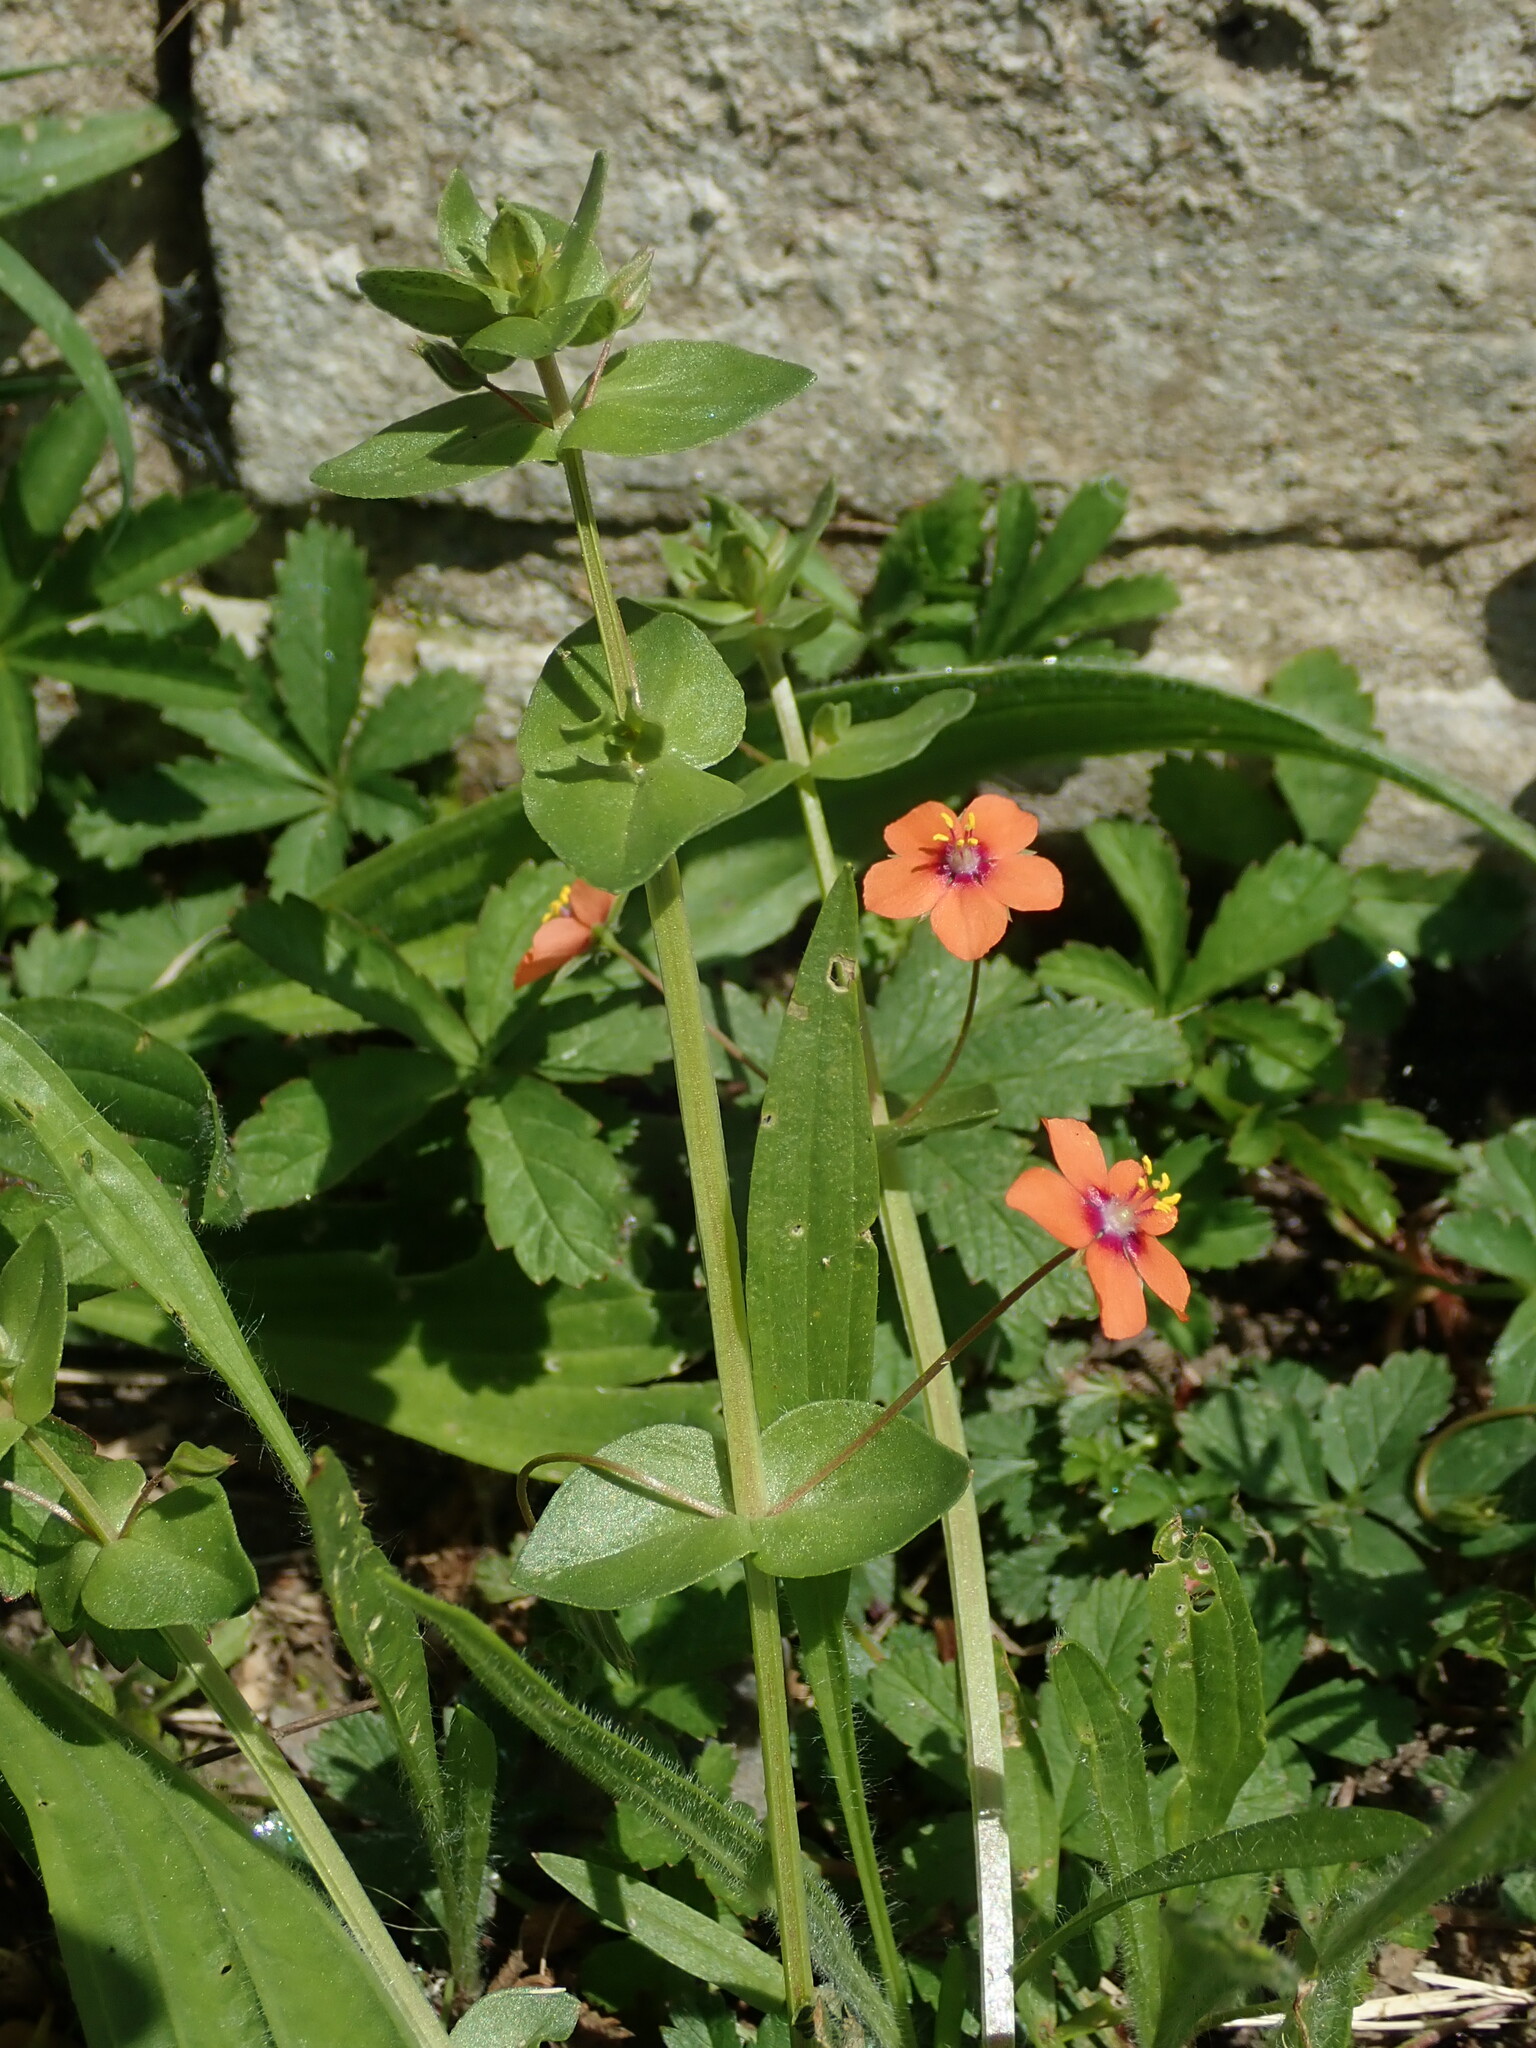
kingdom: Plantae
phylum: Tracheophyta
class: Magnoliopsida
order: Ericales
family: Primulaceae
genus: Lysimachia
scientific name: Lysimachia arvensis
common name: Scarlet pimpernel
